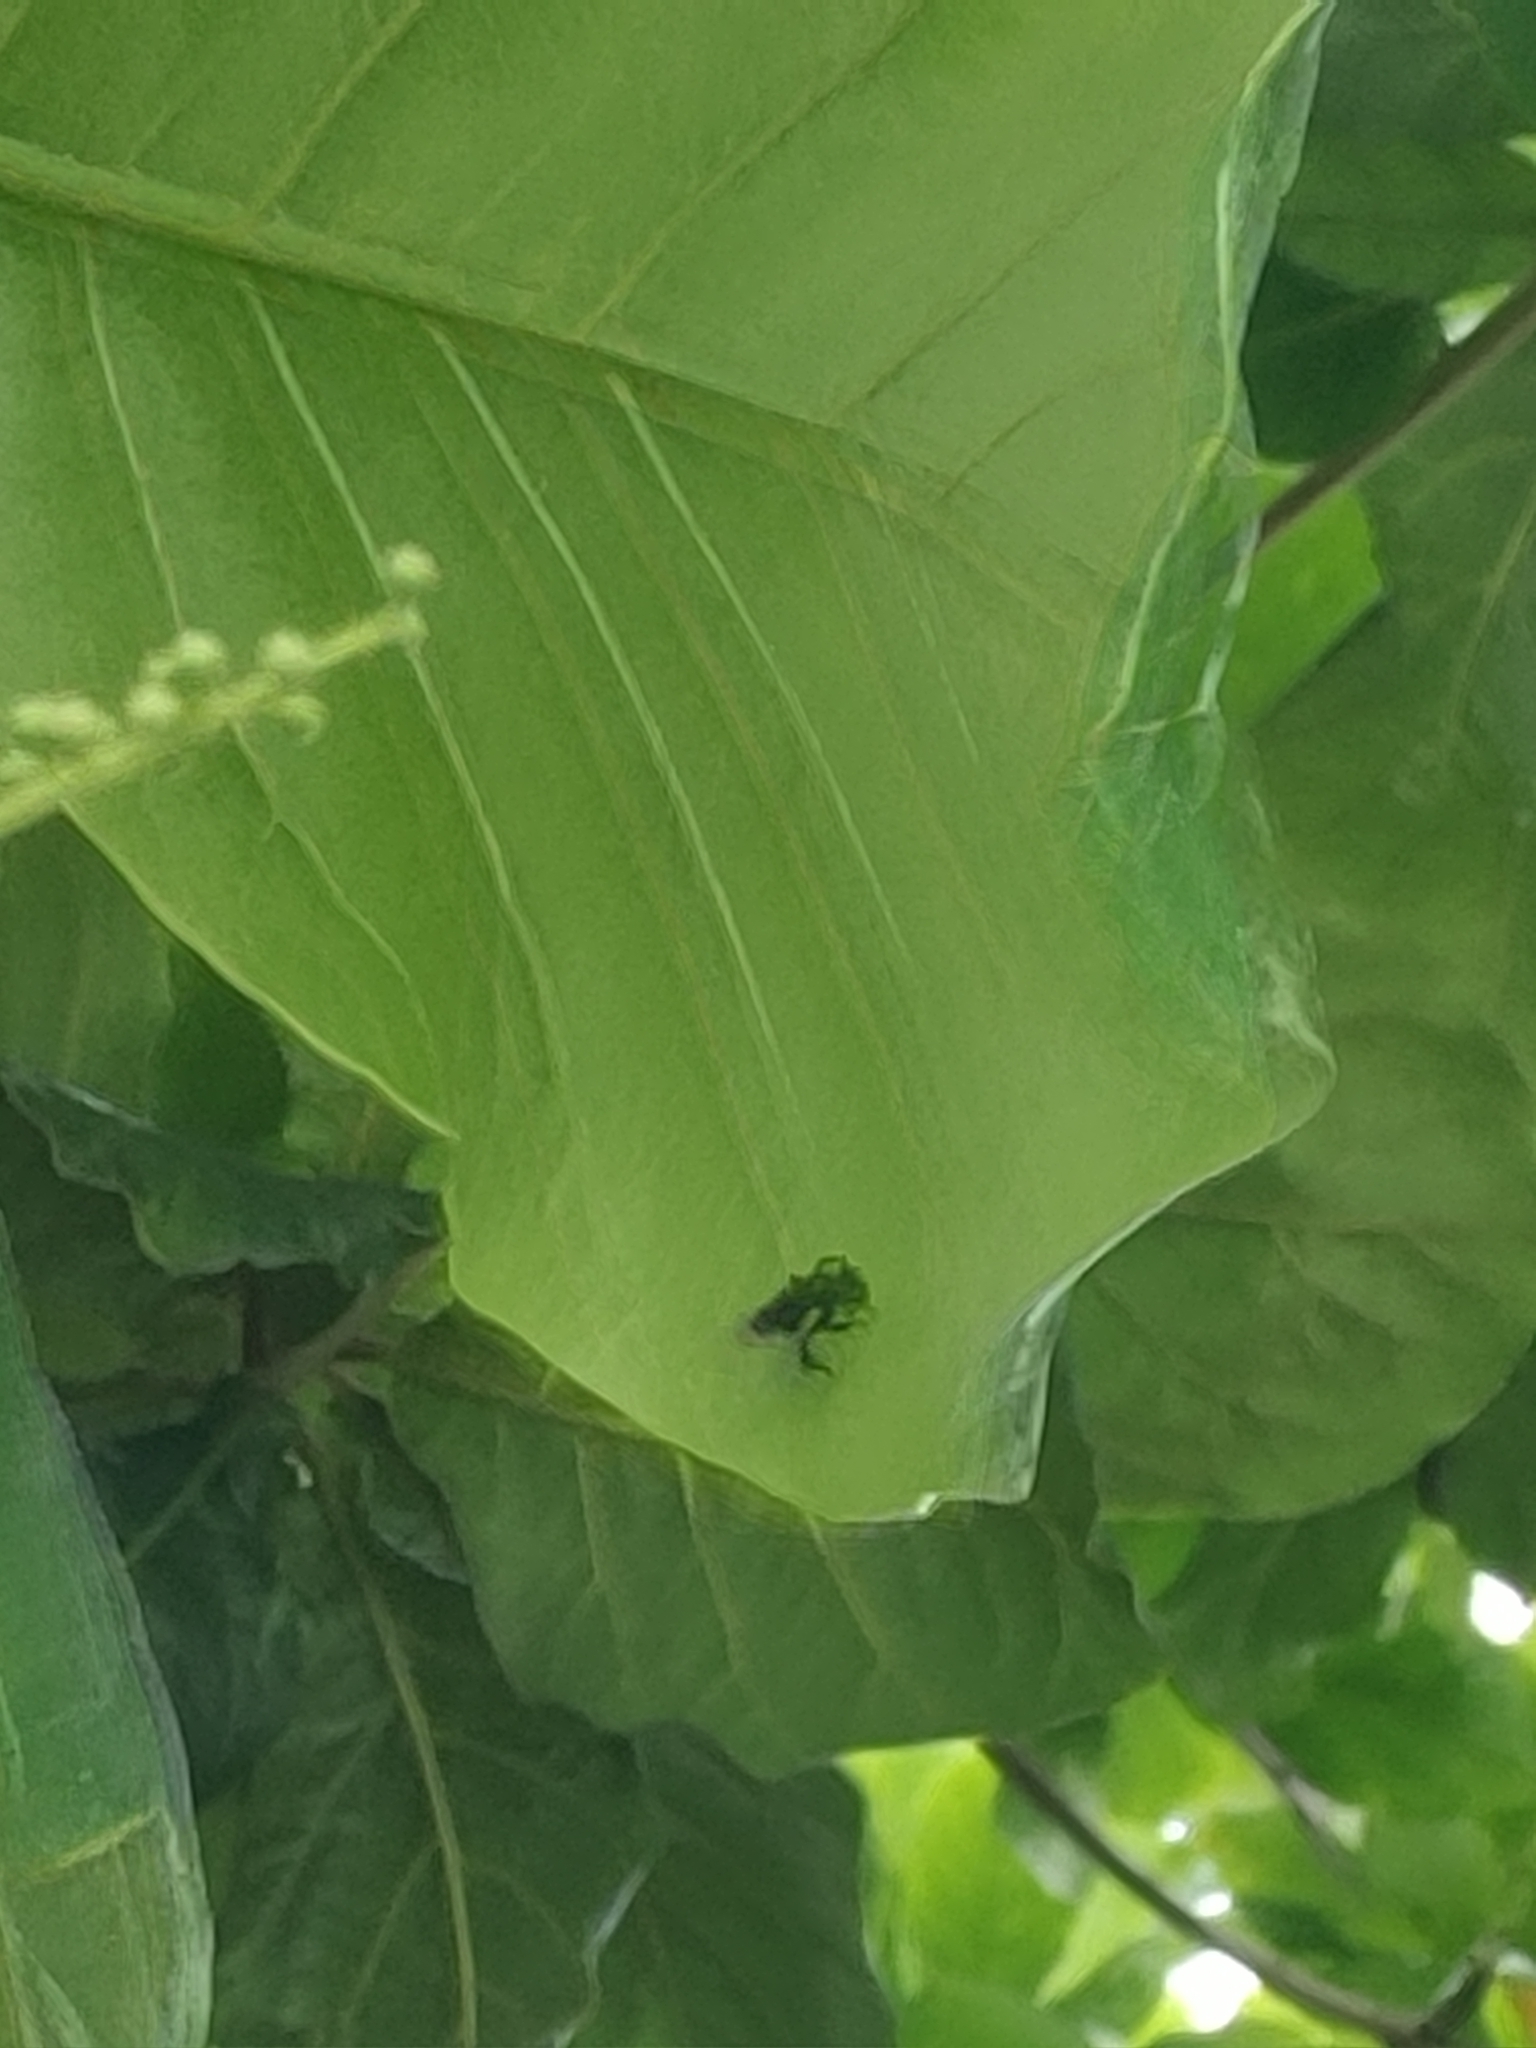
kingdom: Animalia
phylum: Arthropoda
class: Insecta
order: Hymenoptera
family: Apidae
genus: Trigona
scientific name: Trigona spinipes
